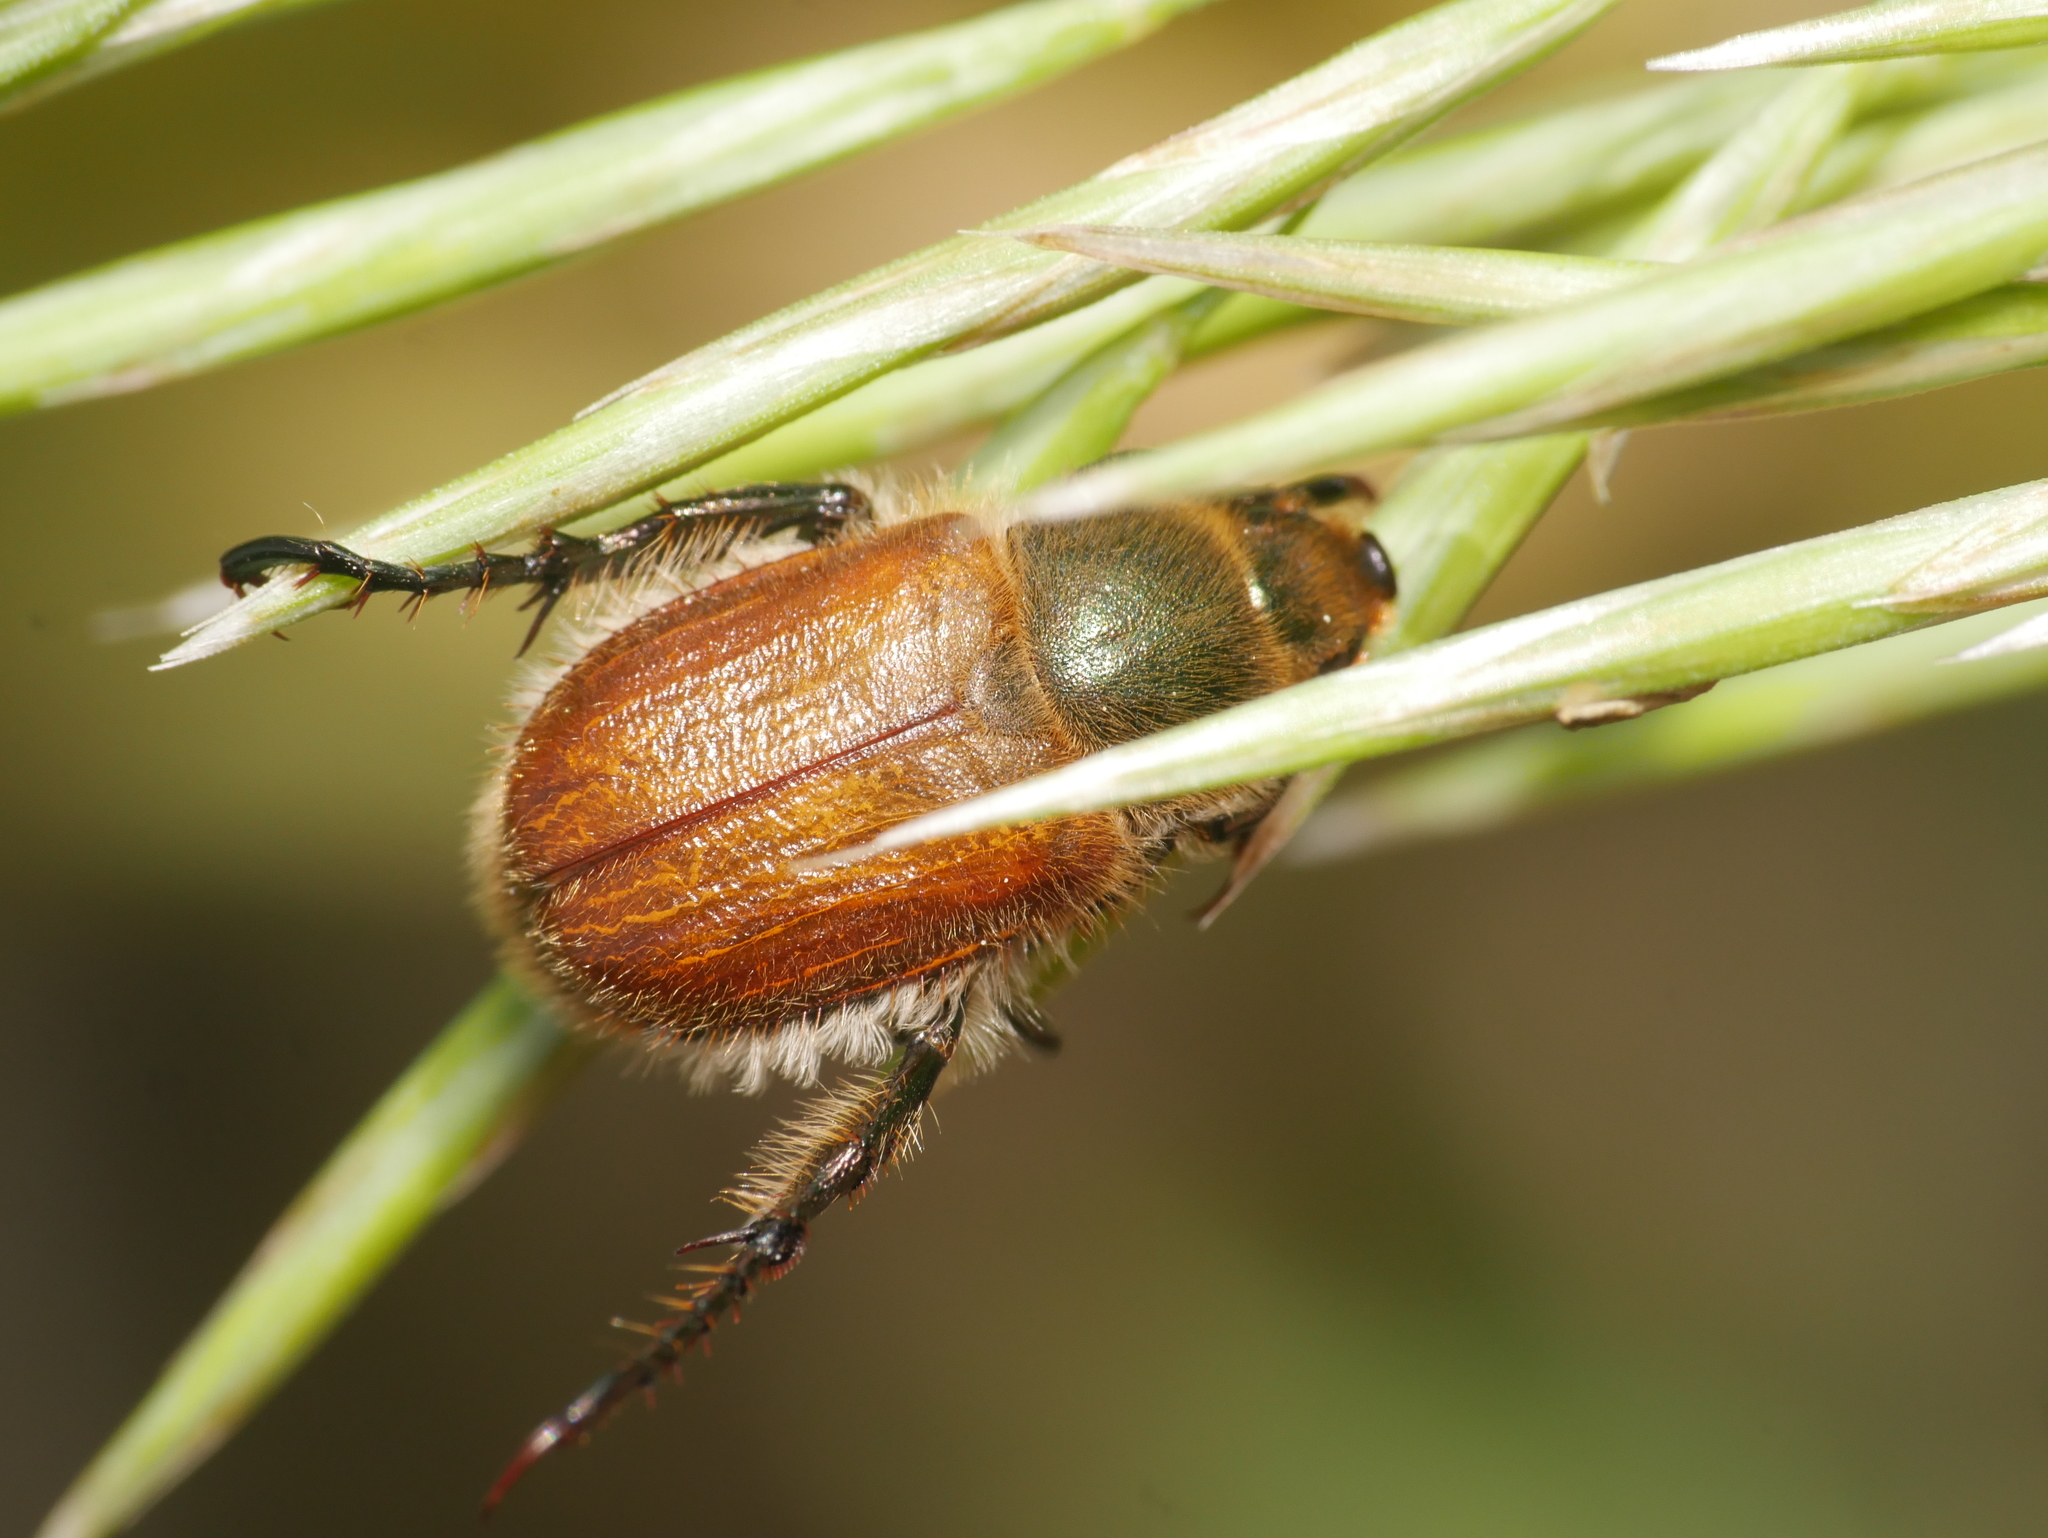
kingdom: Animalia
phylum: Arthropoda
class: Insecta
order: Coleoptera
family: Scarabaeidae
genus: Chaetopteroplia
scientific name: Chaetopteroplia segetum
